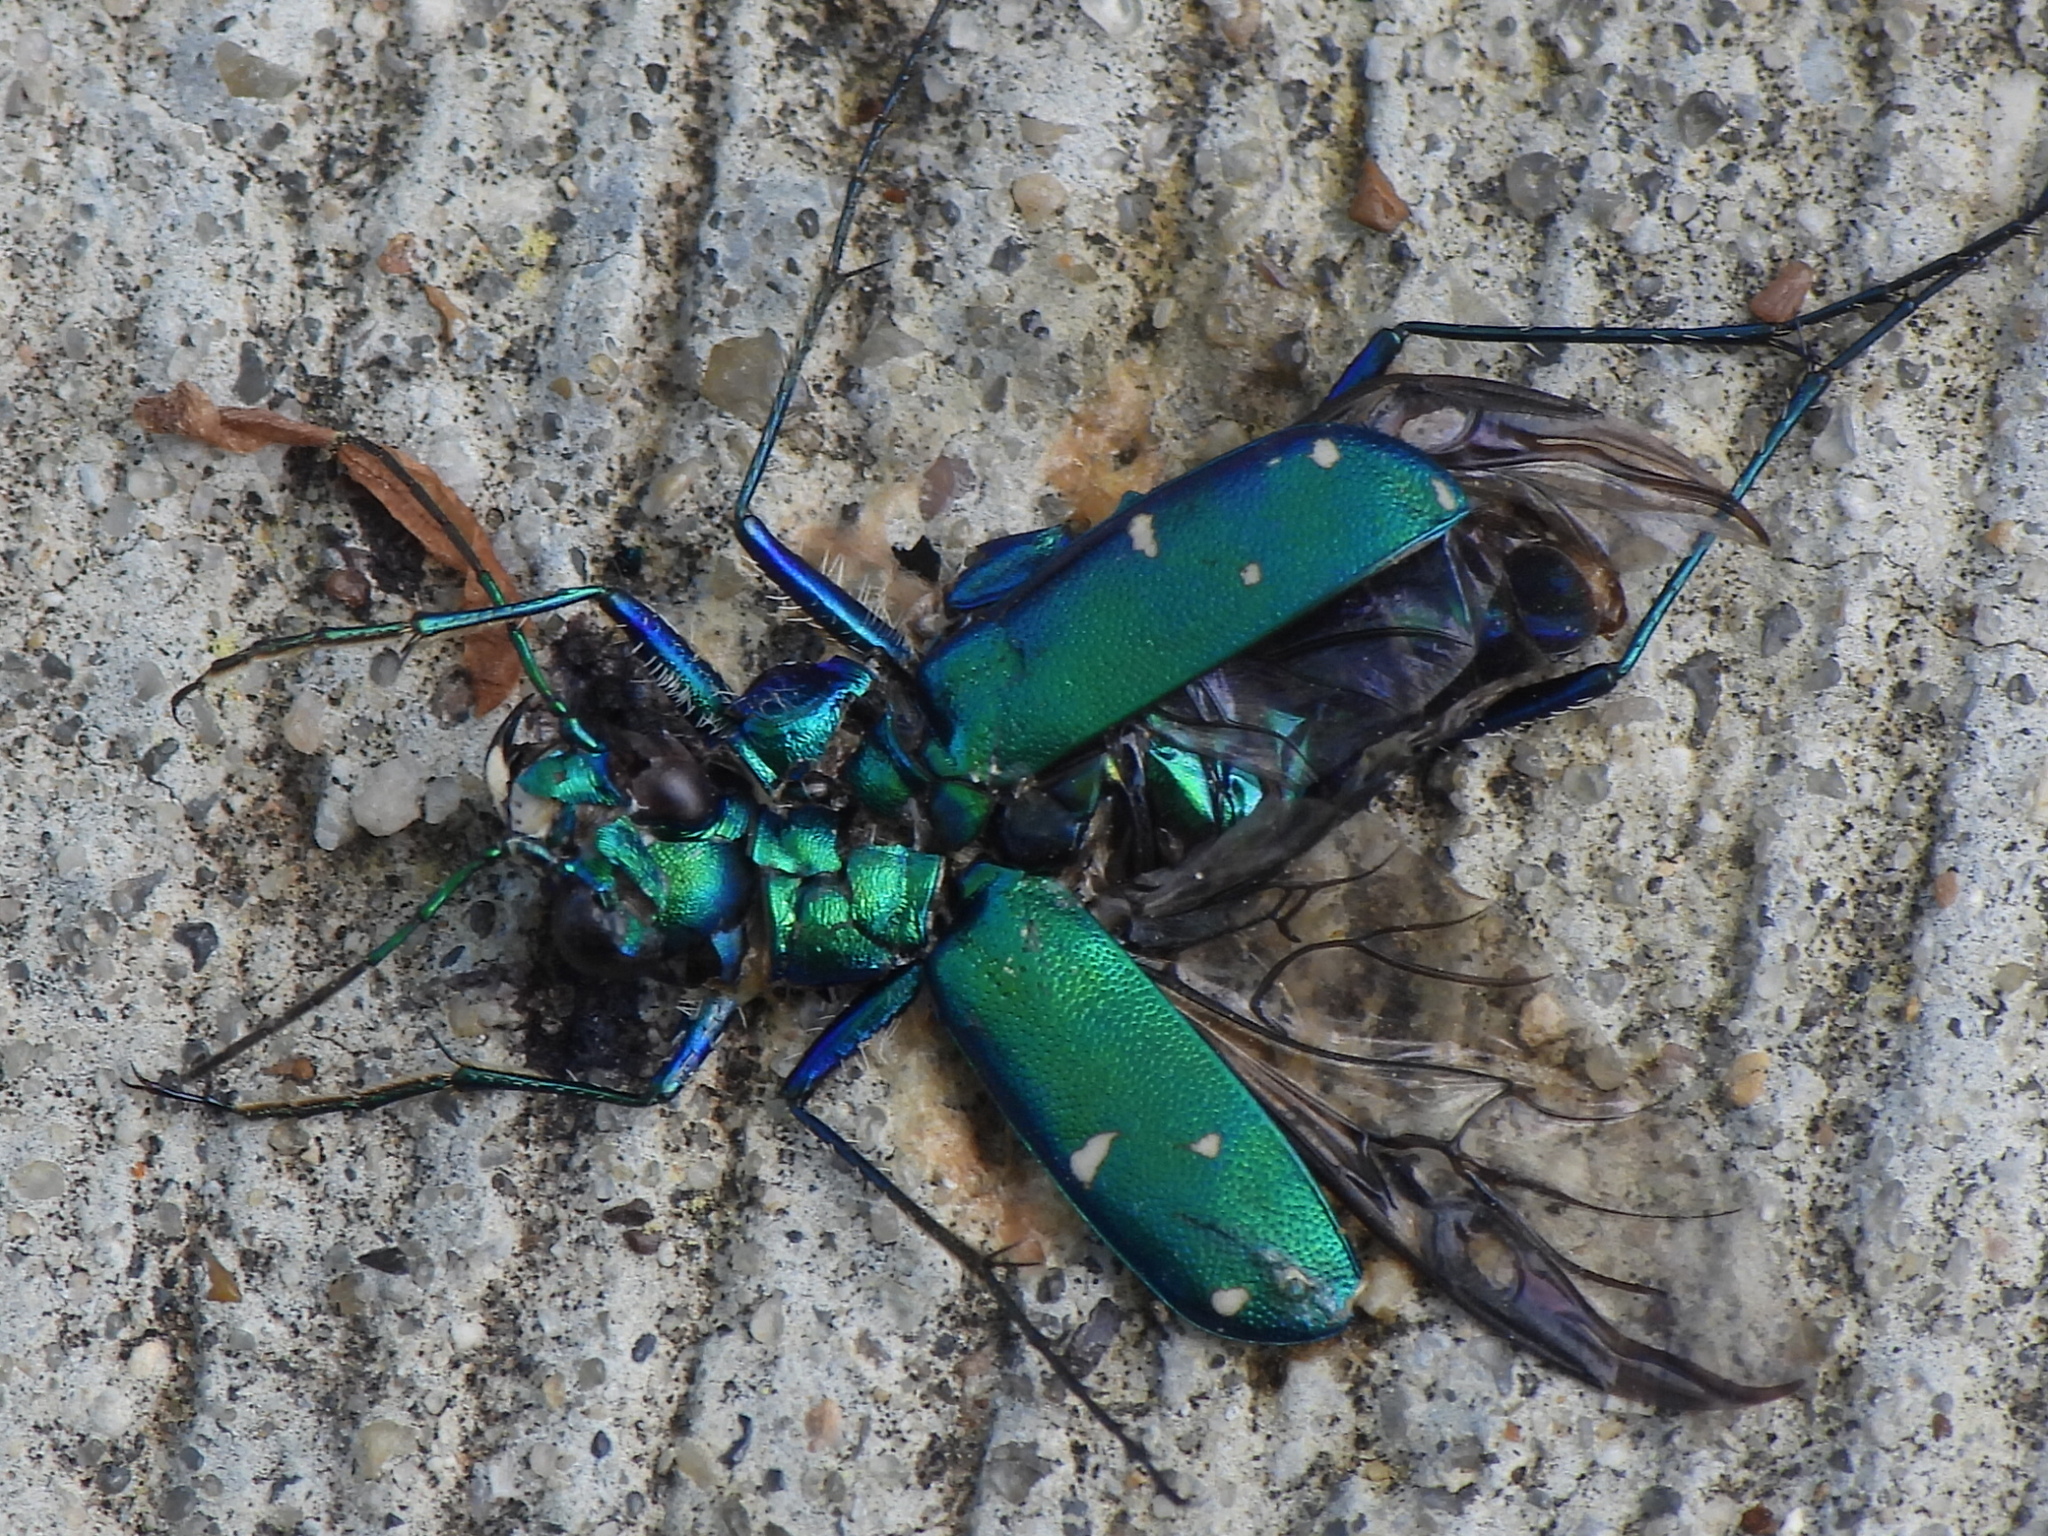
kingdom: Animalia
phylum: Arthropoda
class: Insecta
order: Coleoptera
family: Carabidae
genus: Cicindela
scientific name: Cicindela sexguttata
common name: Six-spotted tiger beetle
